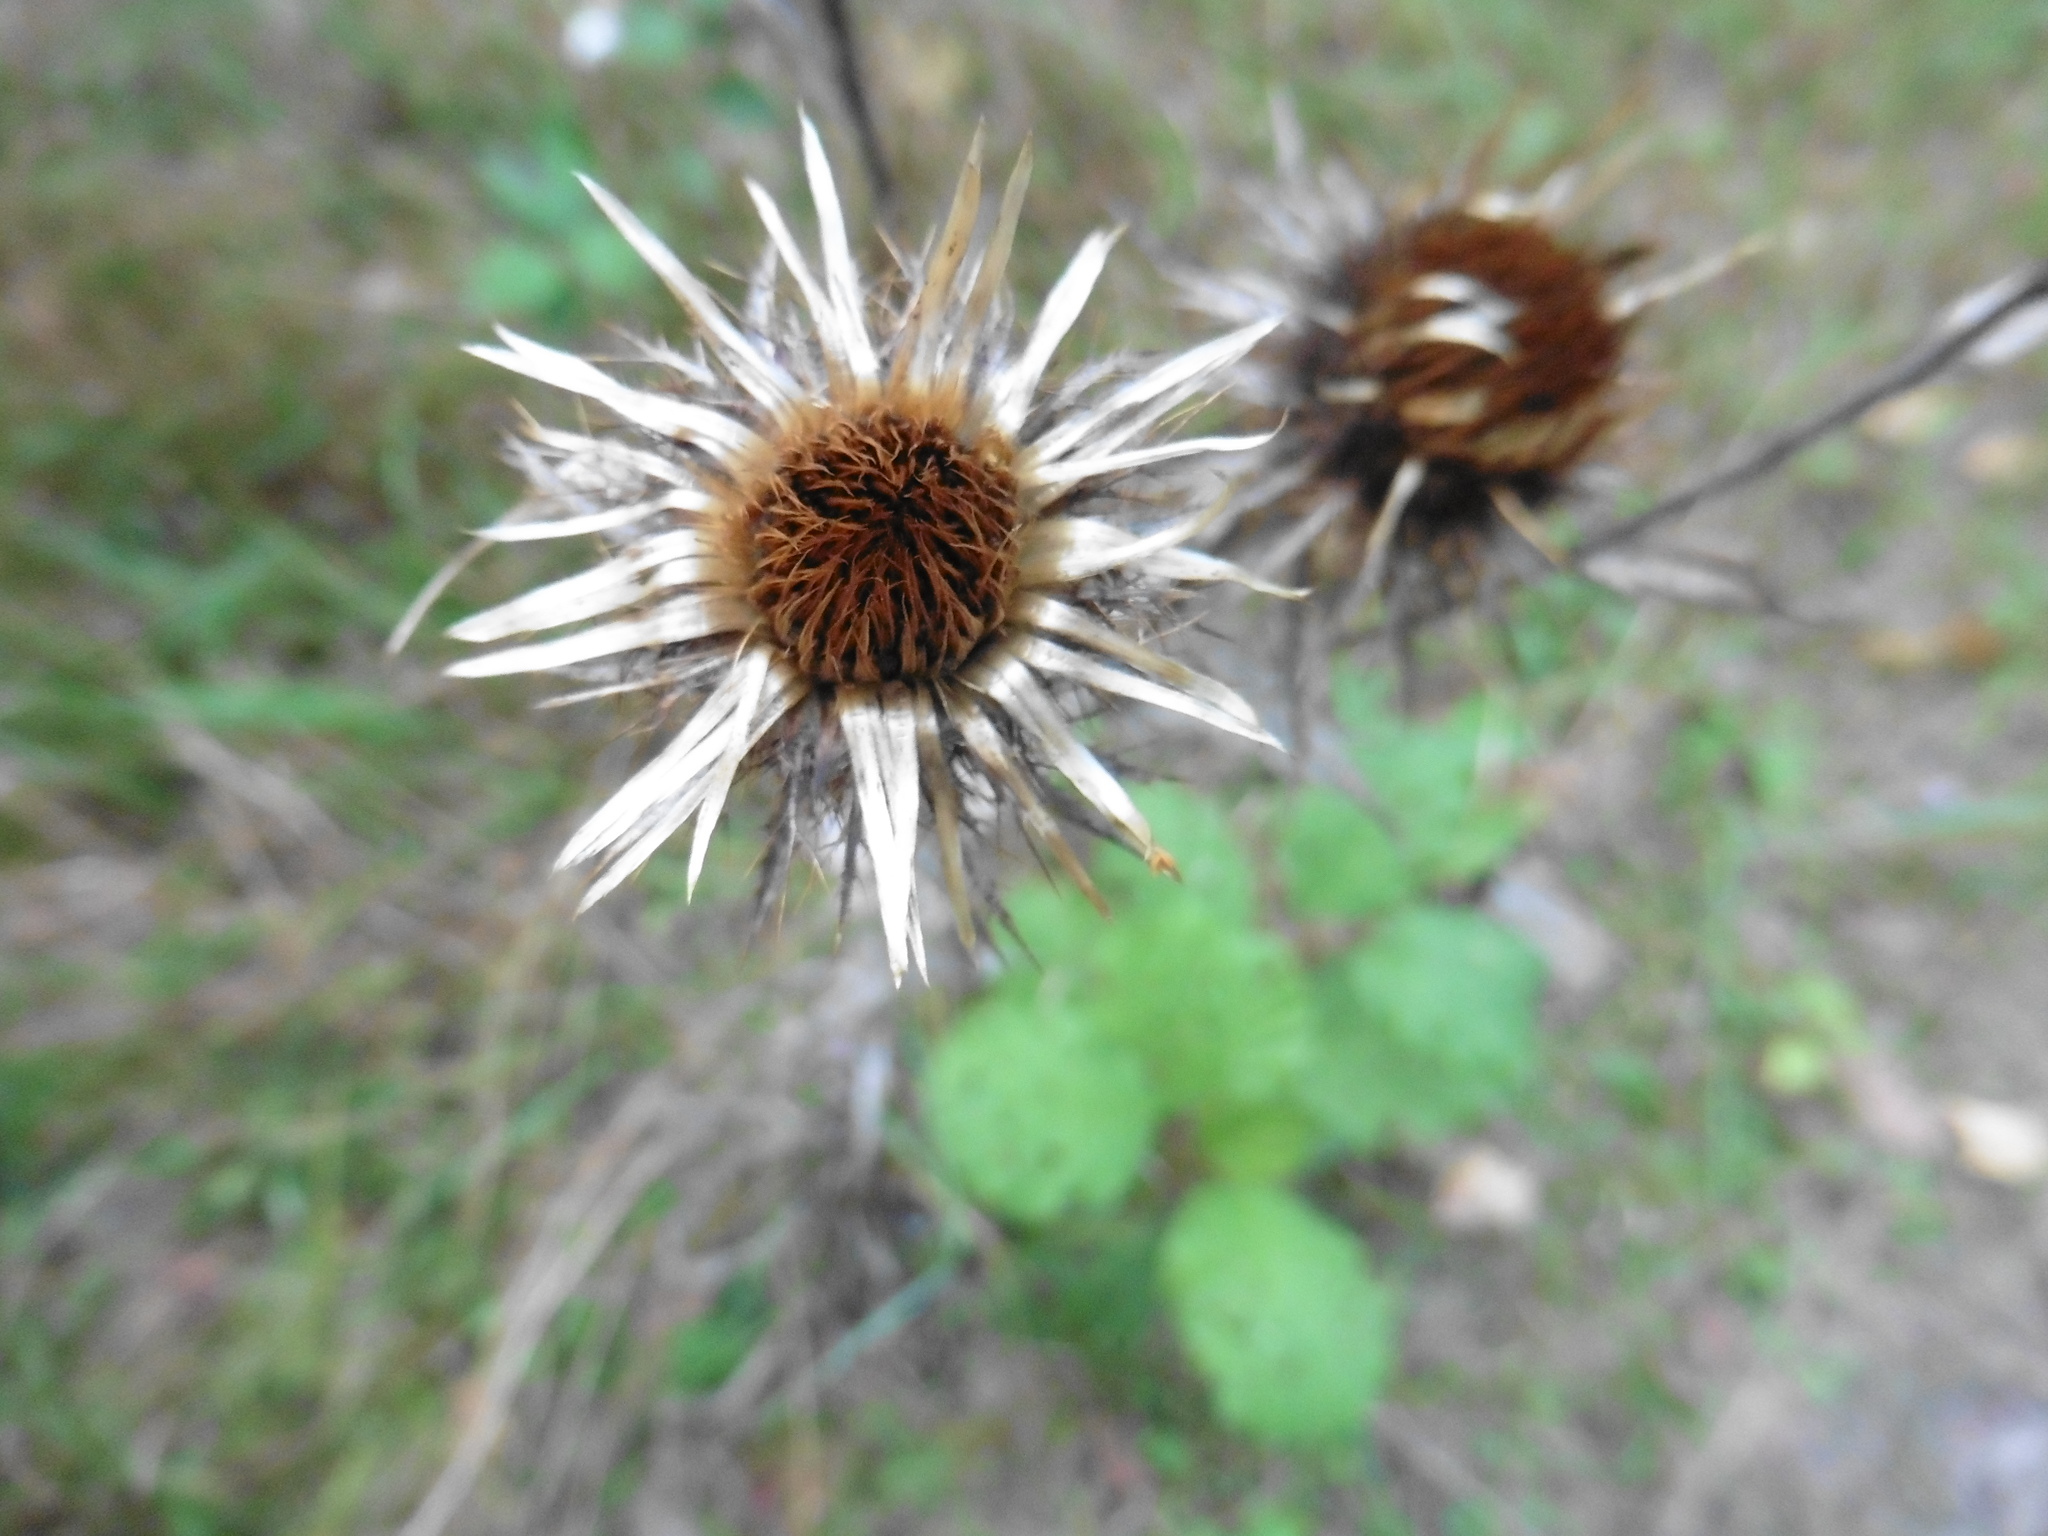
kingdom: Plantae
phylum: Tracheophyta
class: Magnoliopsida
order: Asterales
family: Asteraceae
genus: Carlina
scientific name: Carlina biebersteinii
